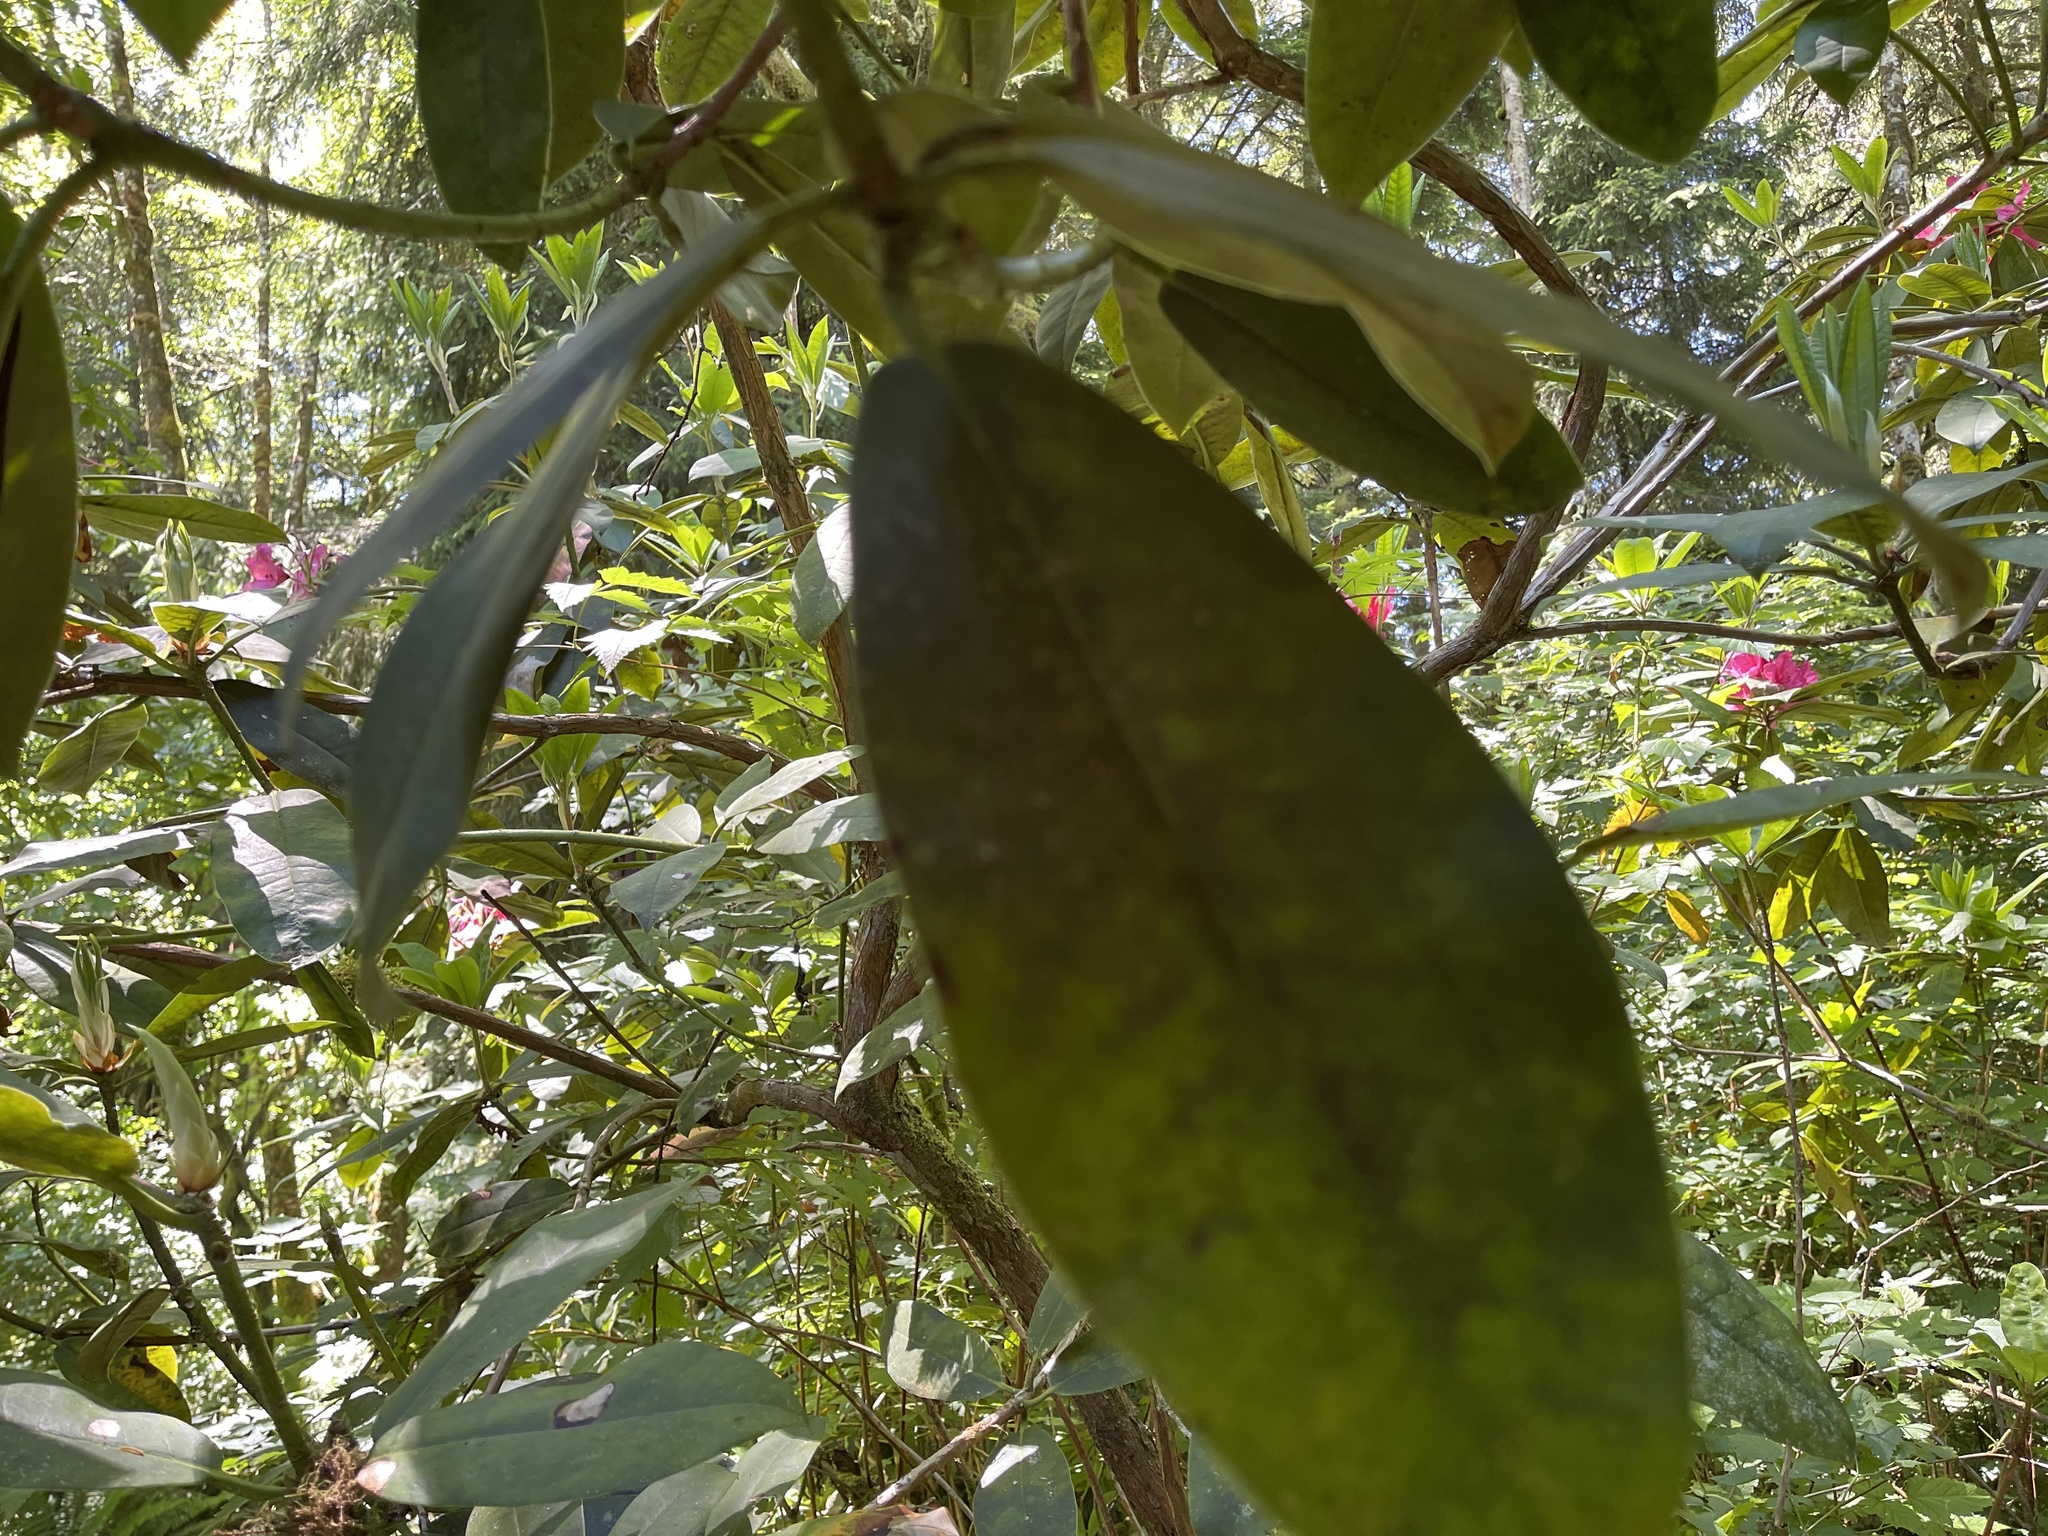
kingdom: Plantae
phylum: Tracheophyta
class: Magnoliopsida
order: Ericales
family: Ericaceae
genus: Rhododendron
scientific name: Rhododendron macrophyllum
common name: California rose bay
